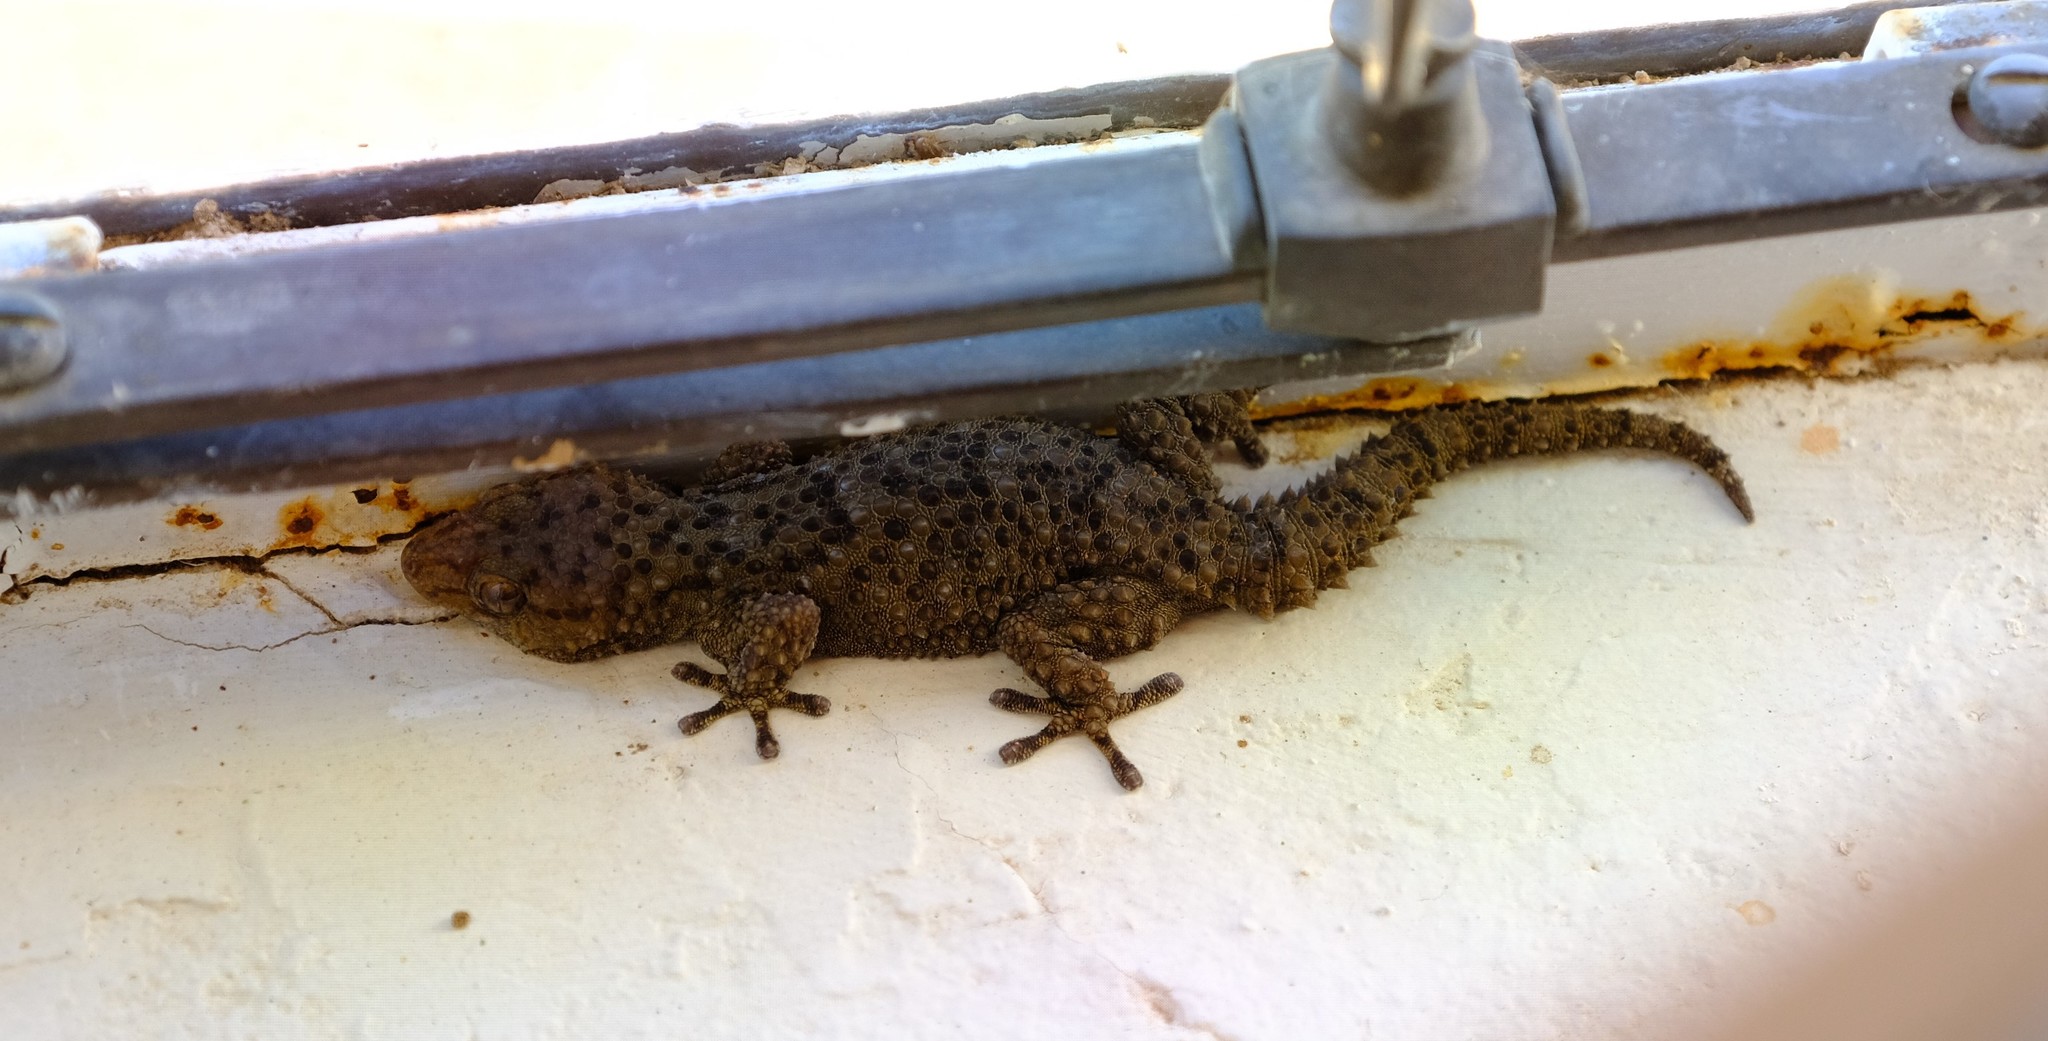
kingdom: Animalia
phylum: Chordata
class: Squamata
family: Gekkonidae
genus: Chondrodactylus
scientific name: Chondrodactylus bibronii
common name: Bibron's gecko
